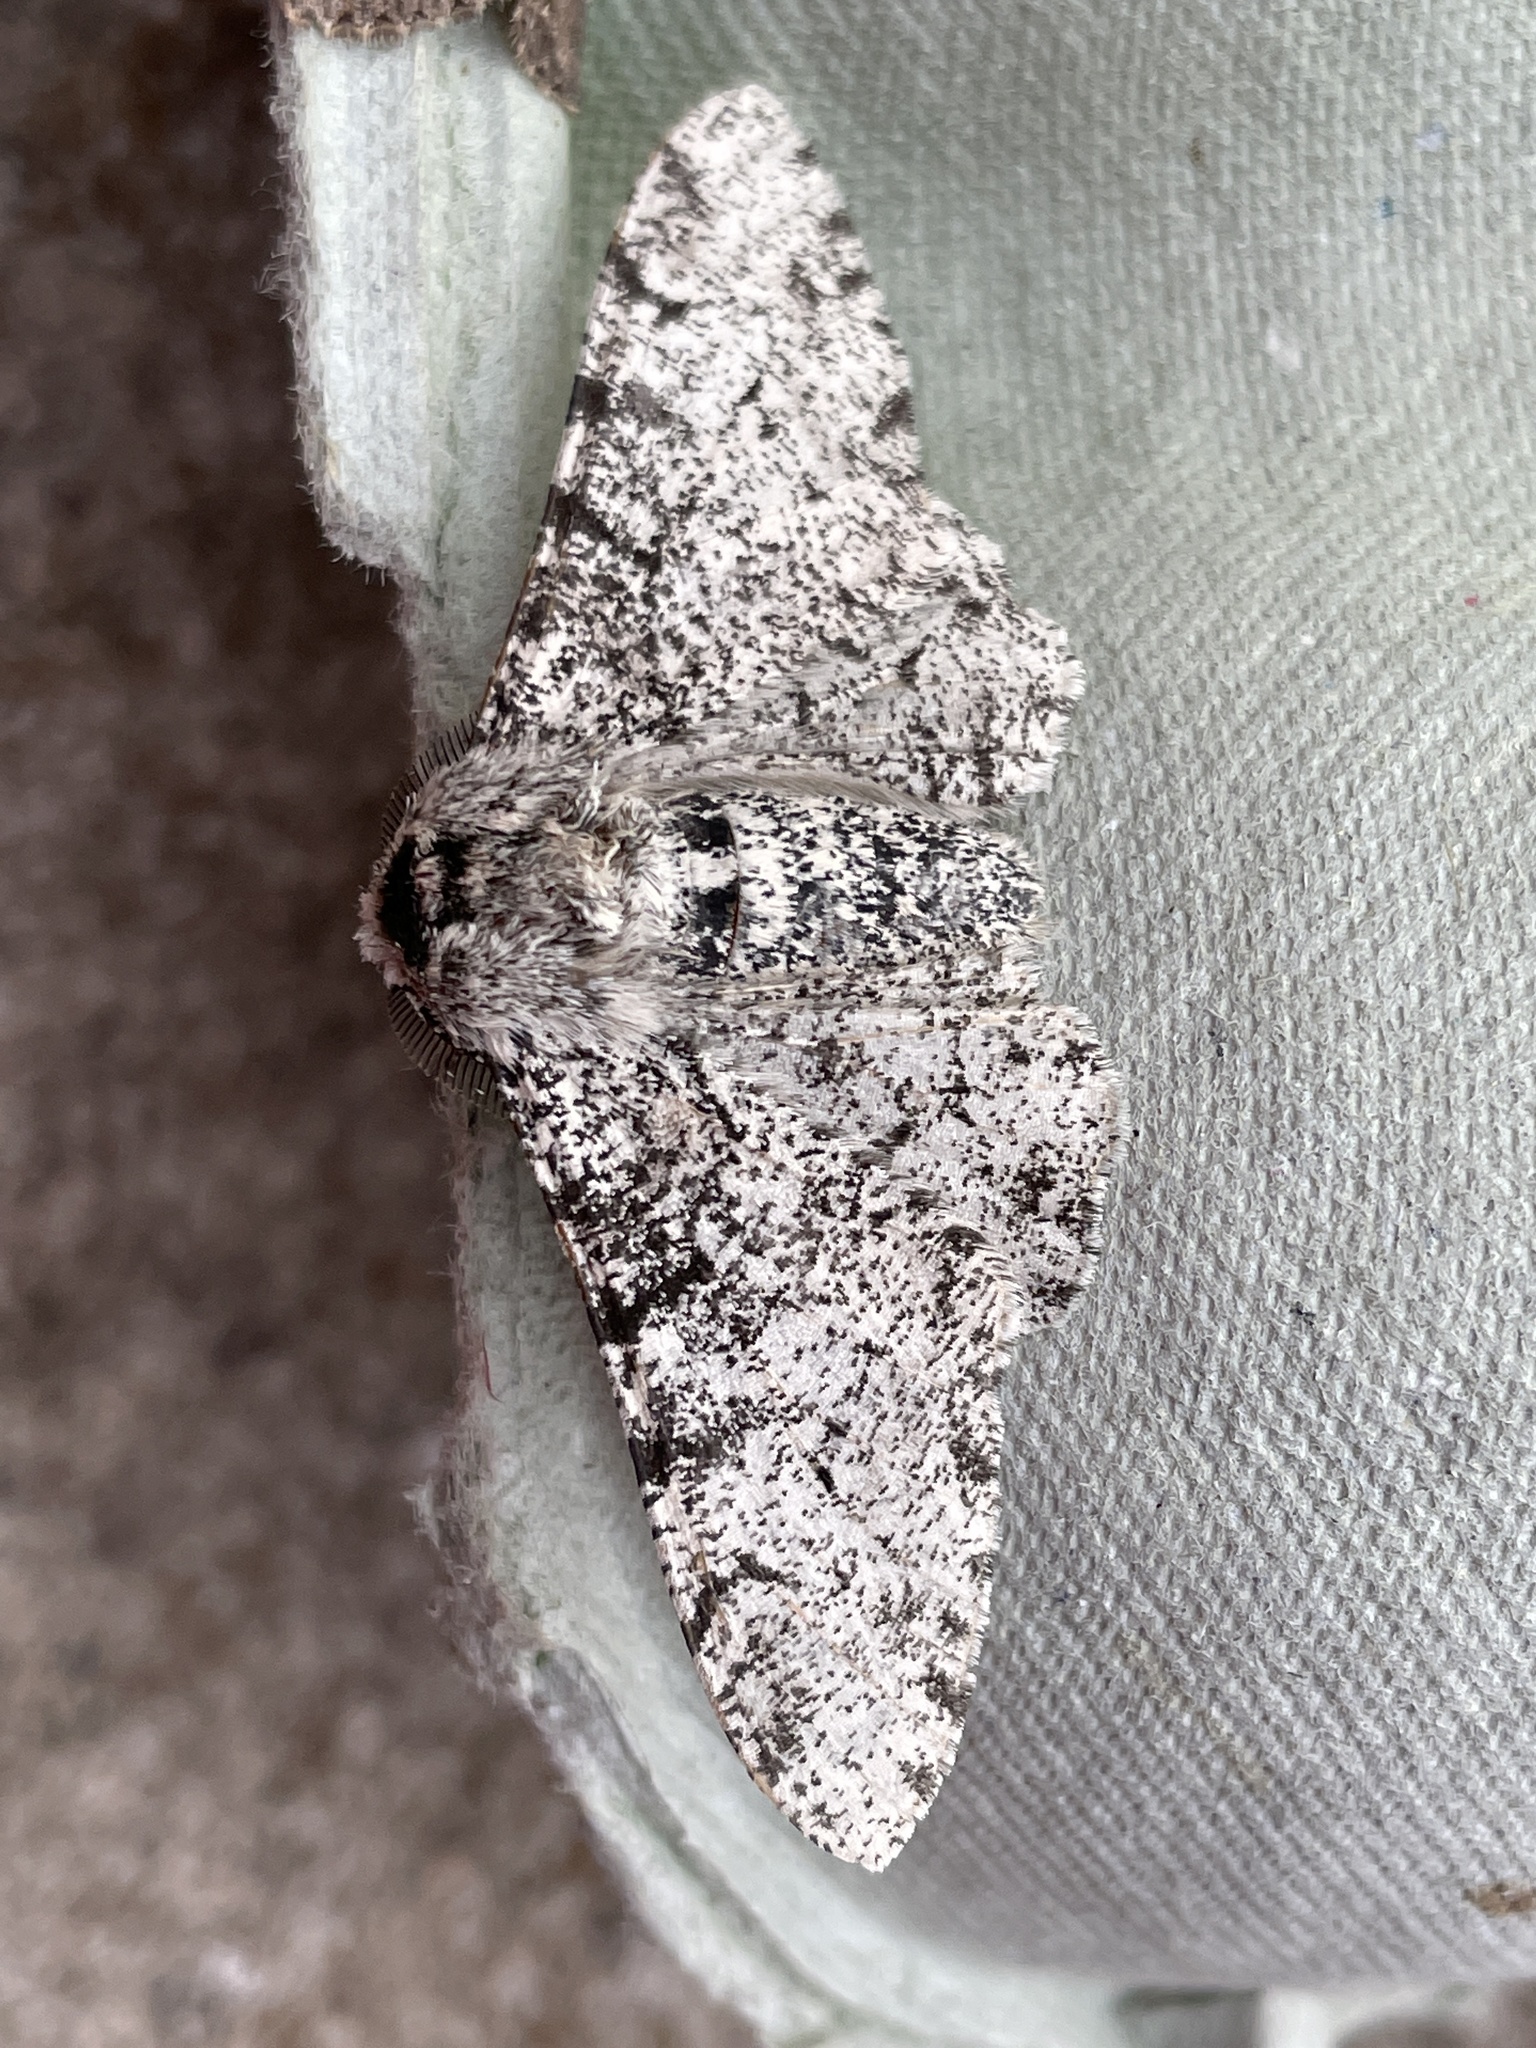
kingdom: Animalia
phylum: Arthropoda
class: Insecta
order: Lepidoptera
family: Geometridae
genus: Biston
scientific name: Biston betularia
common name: Peppered moth
